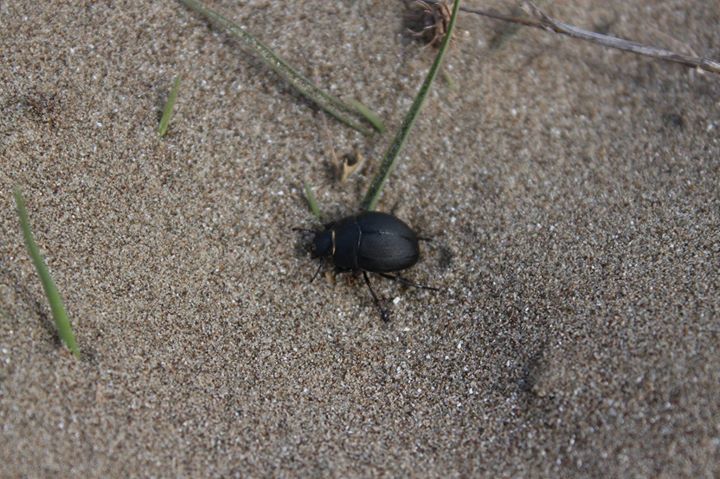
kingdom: Animalia
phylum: Arthropoda
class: Insecta
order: Coleoptera
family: Tenebrionidae
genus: Erodius
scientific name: Erodius siculus
